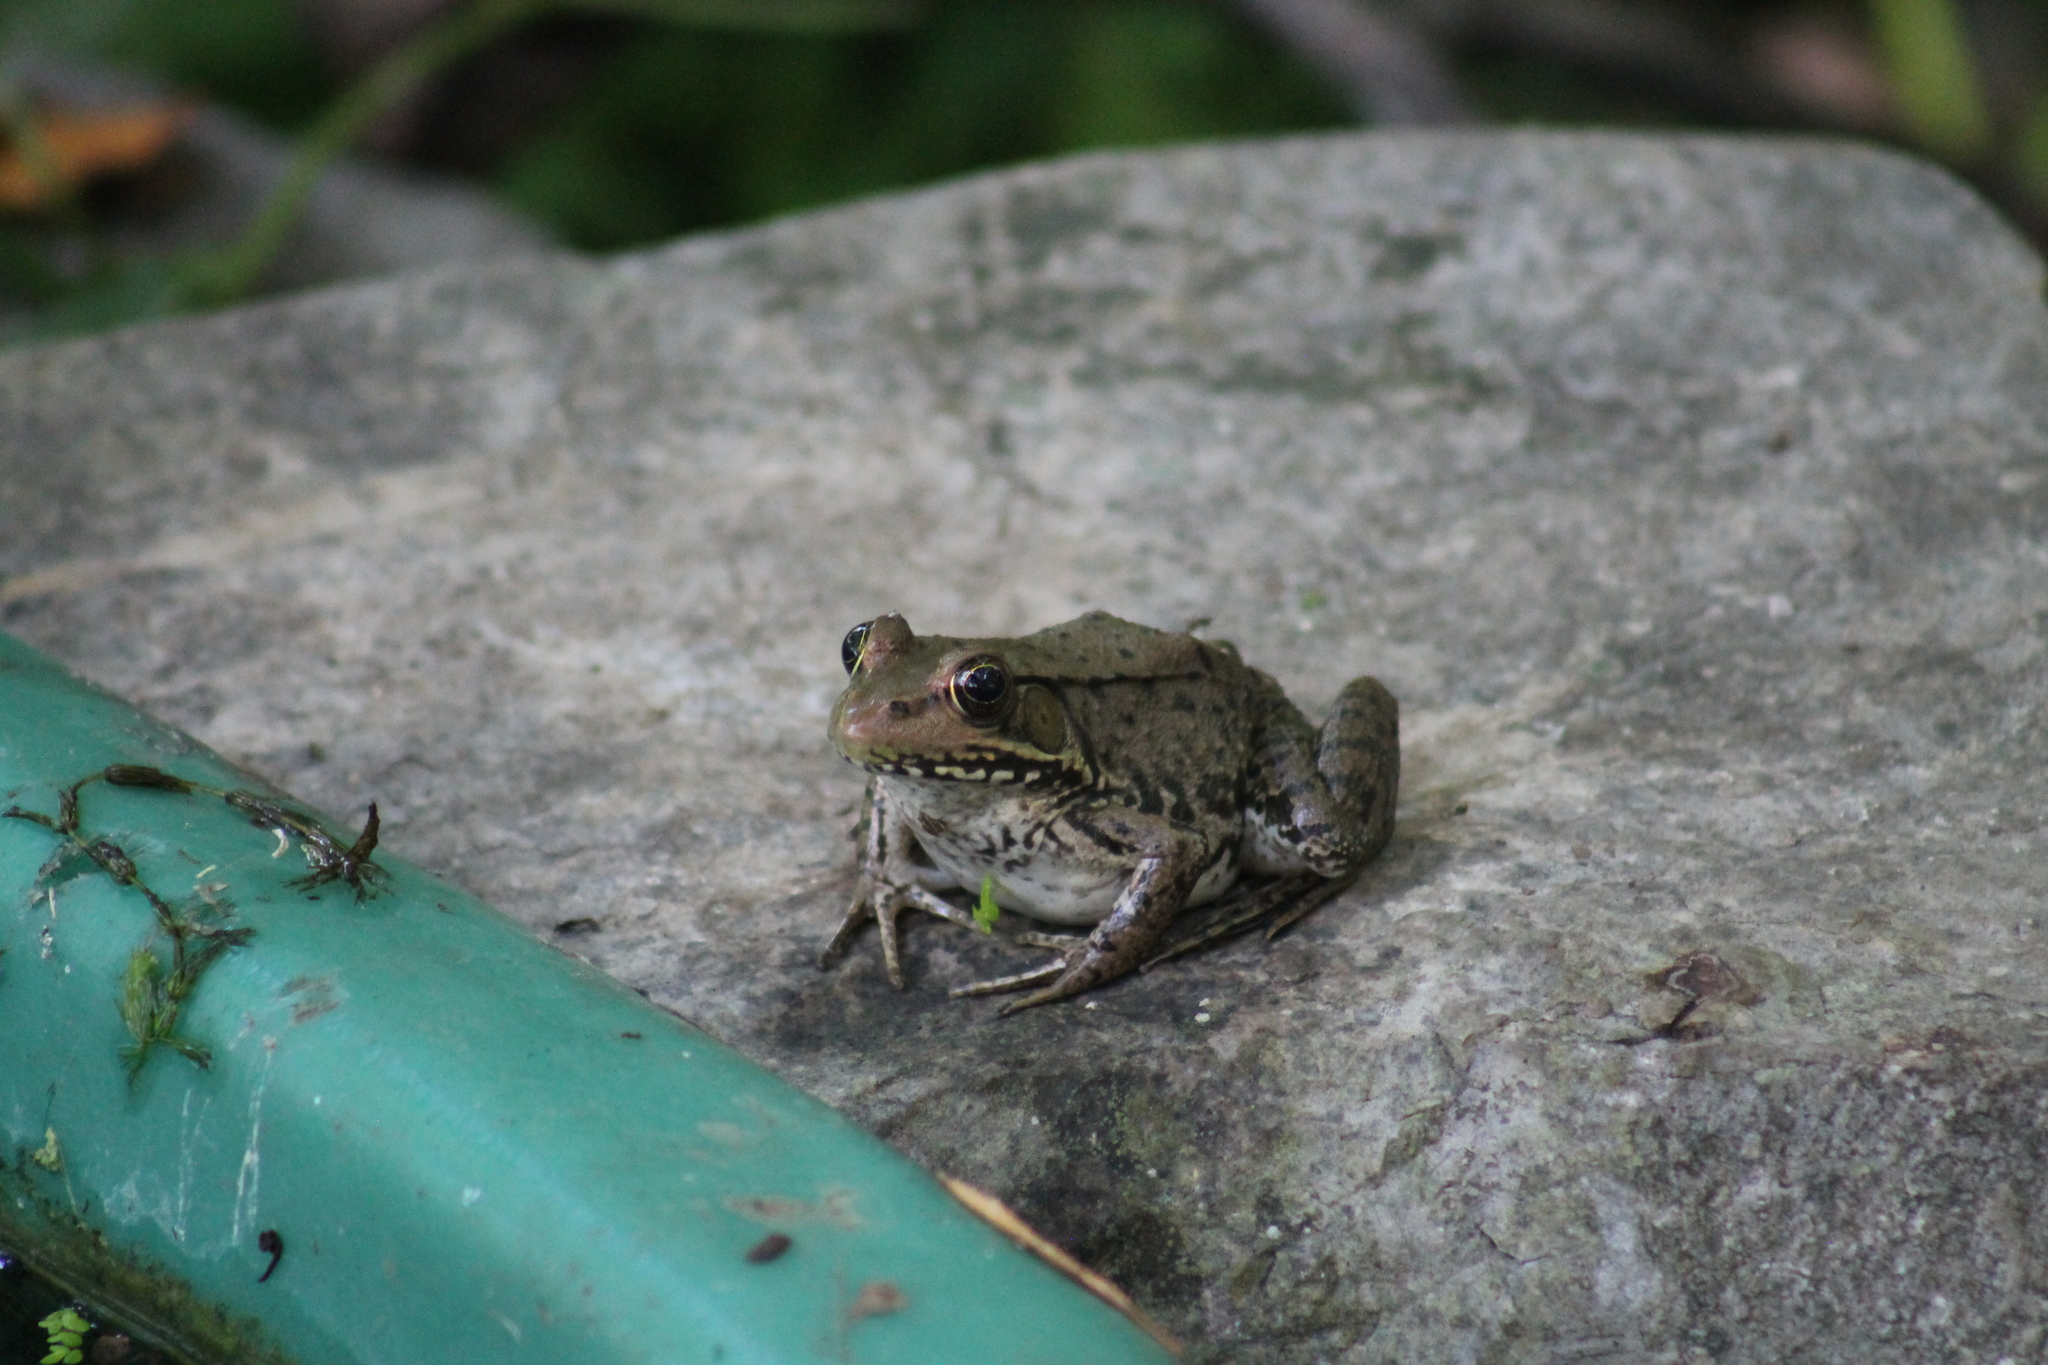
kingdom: Animalia
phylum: Chordata
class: Amphibia
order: Anura
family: Ranidae
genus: Lithobates
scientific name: Lithobates clamitans
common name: Green frog
